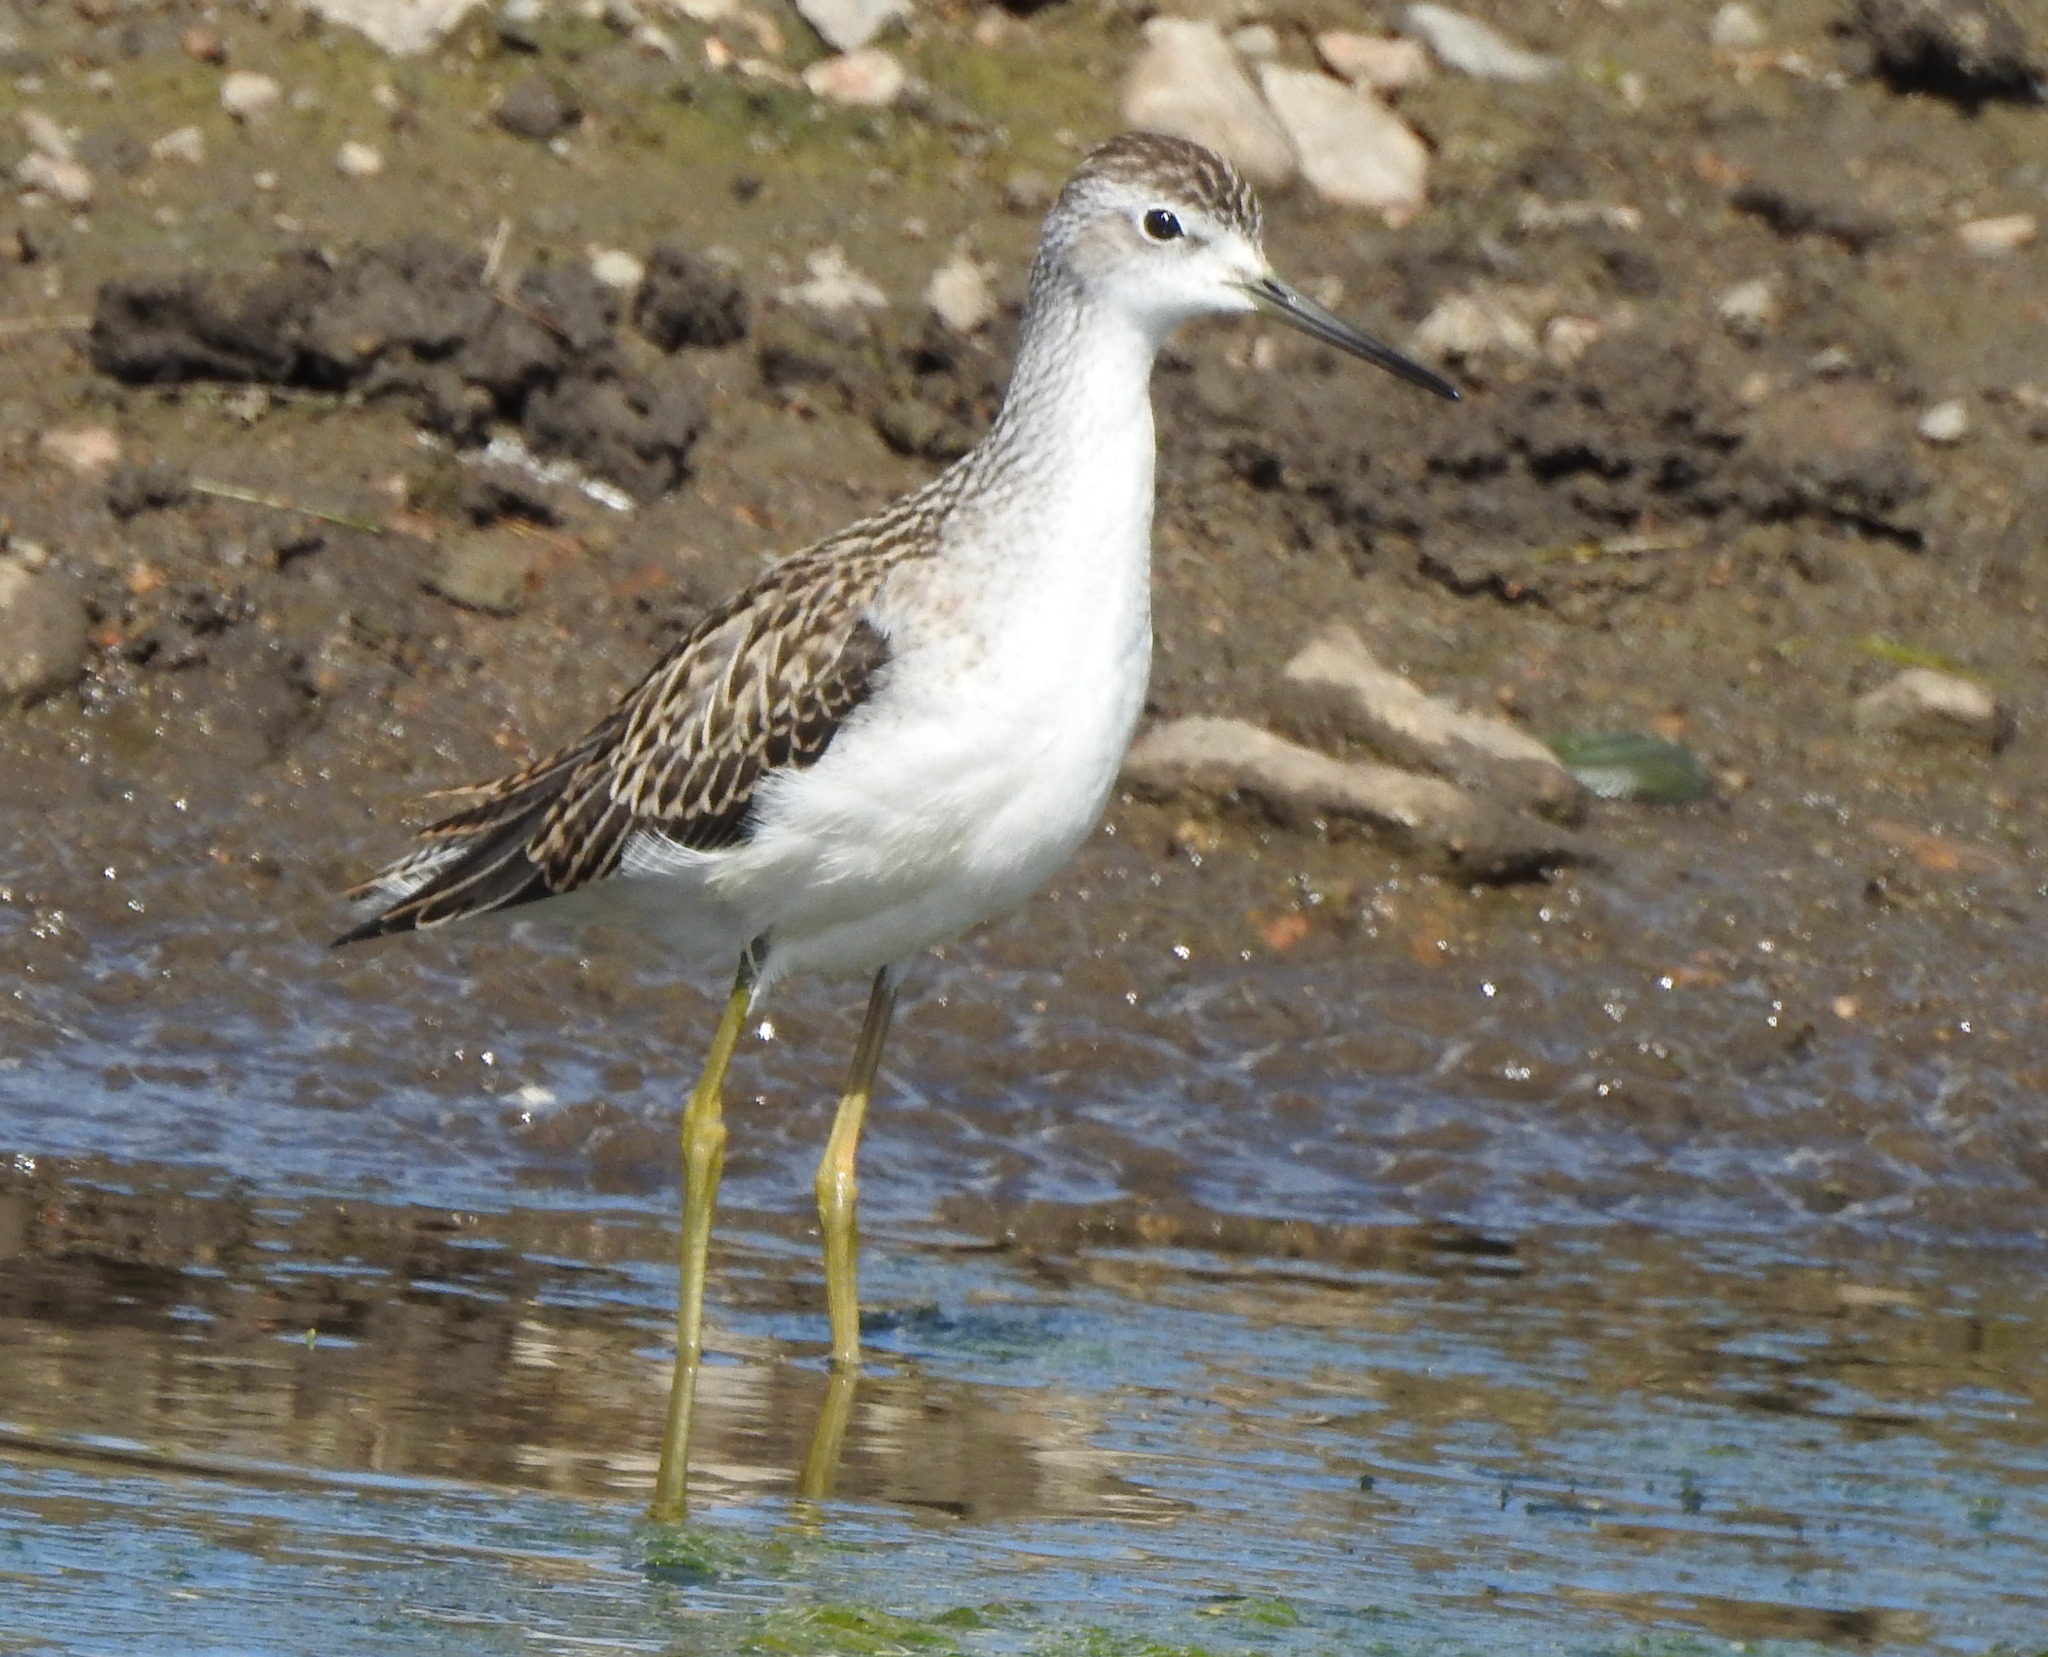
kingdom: Animalia
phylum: Chordata
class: Aves
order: Charadriiformes
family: Scolopacidae
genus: Tringa
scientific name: Tringa stagnatilis
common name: Marsh sandpiper
